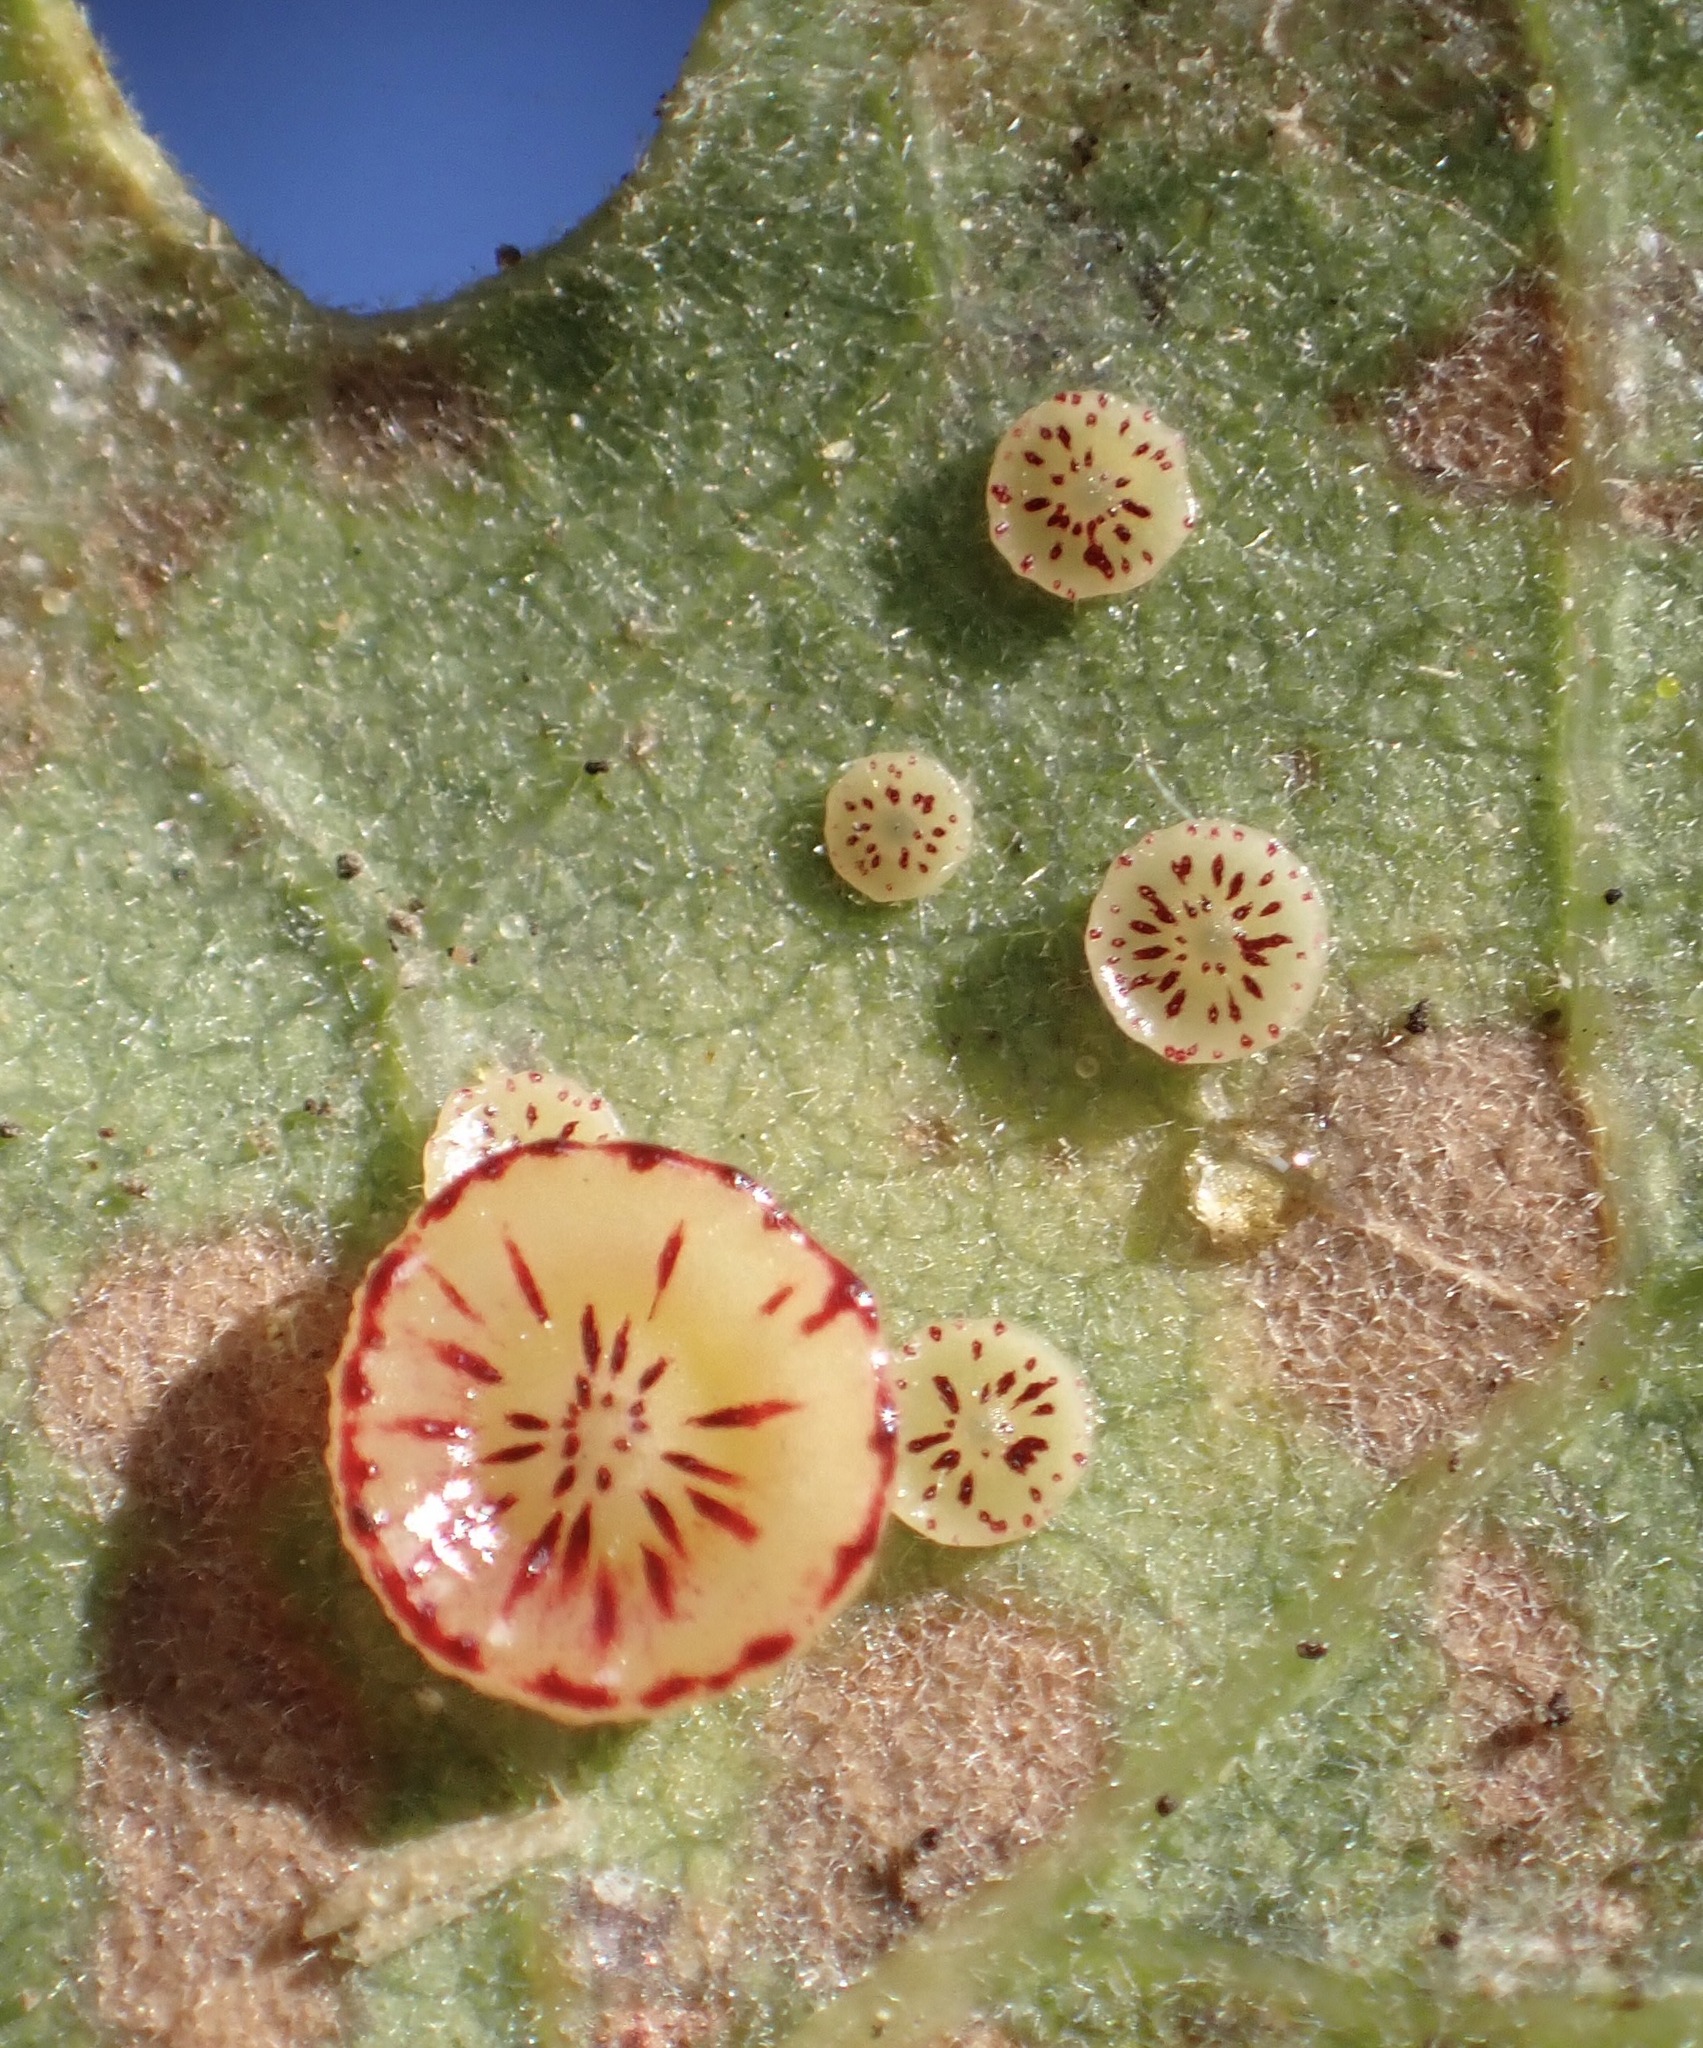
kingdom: Animalia
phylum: Arthropoda
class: Insecta
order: Hymenoptera
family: Cynipidae
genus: Andricus
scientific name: Andricus
